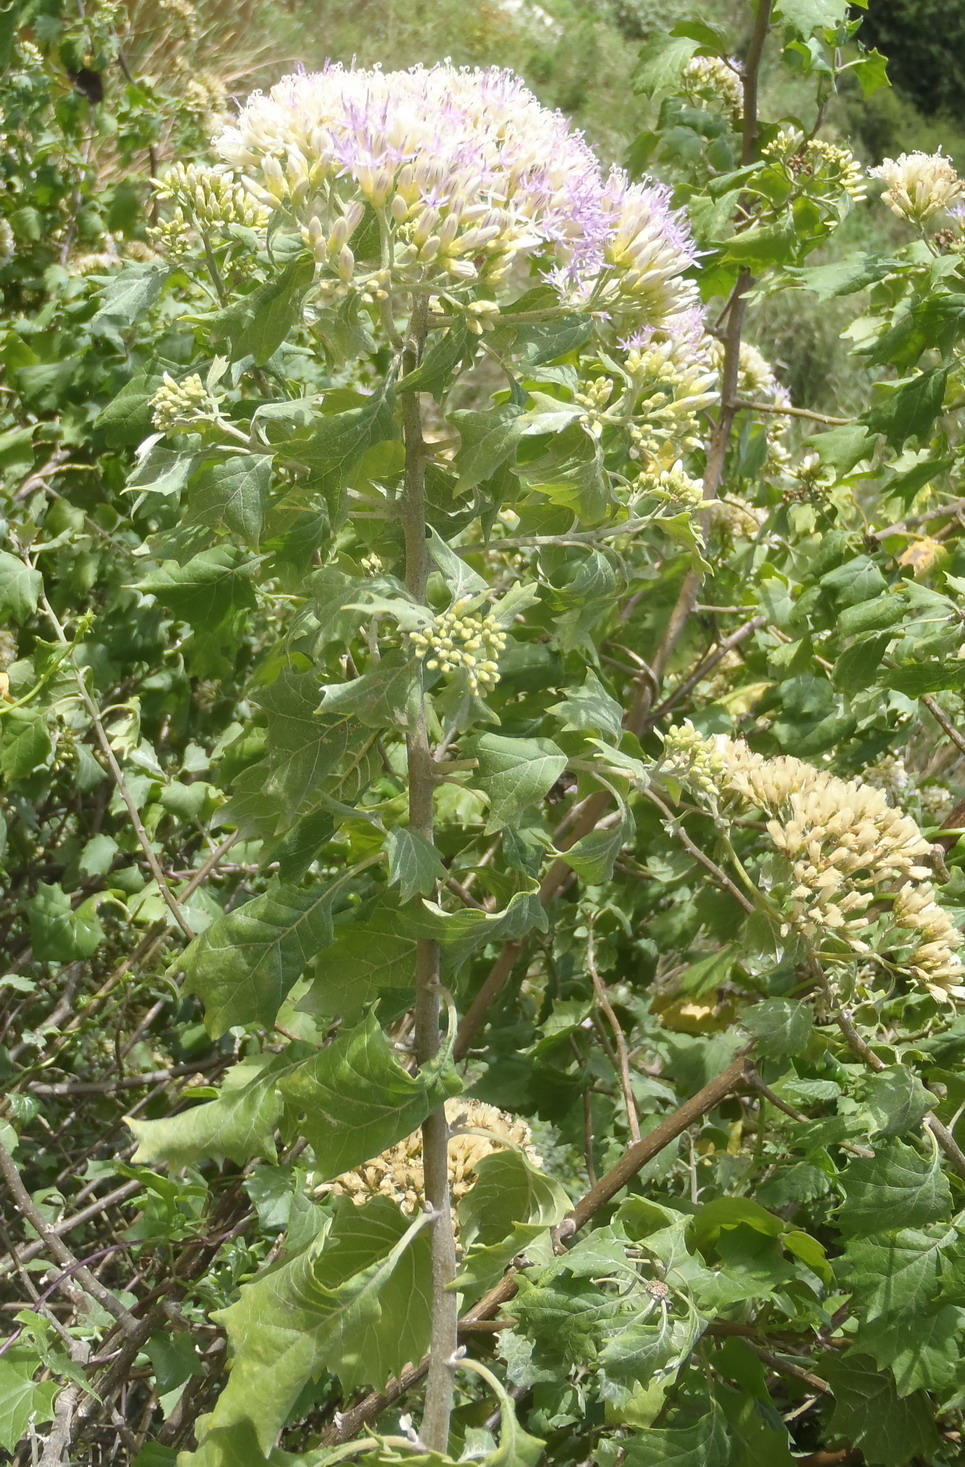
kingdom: Plantae
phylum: Tracheophyta
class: Magnoliopsida
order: Asterales
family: Asteraceae
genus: Gymnanthemum
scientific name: Gymnanthemum capense
